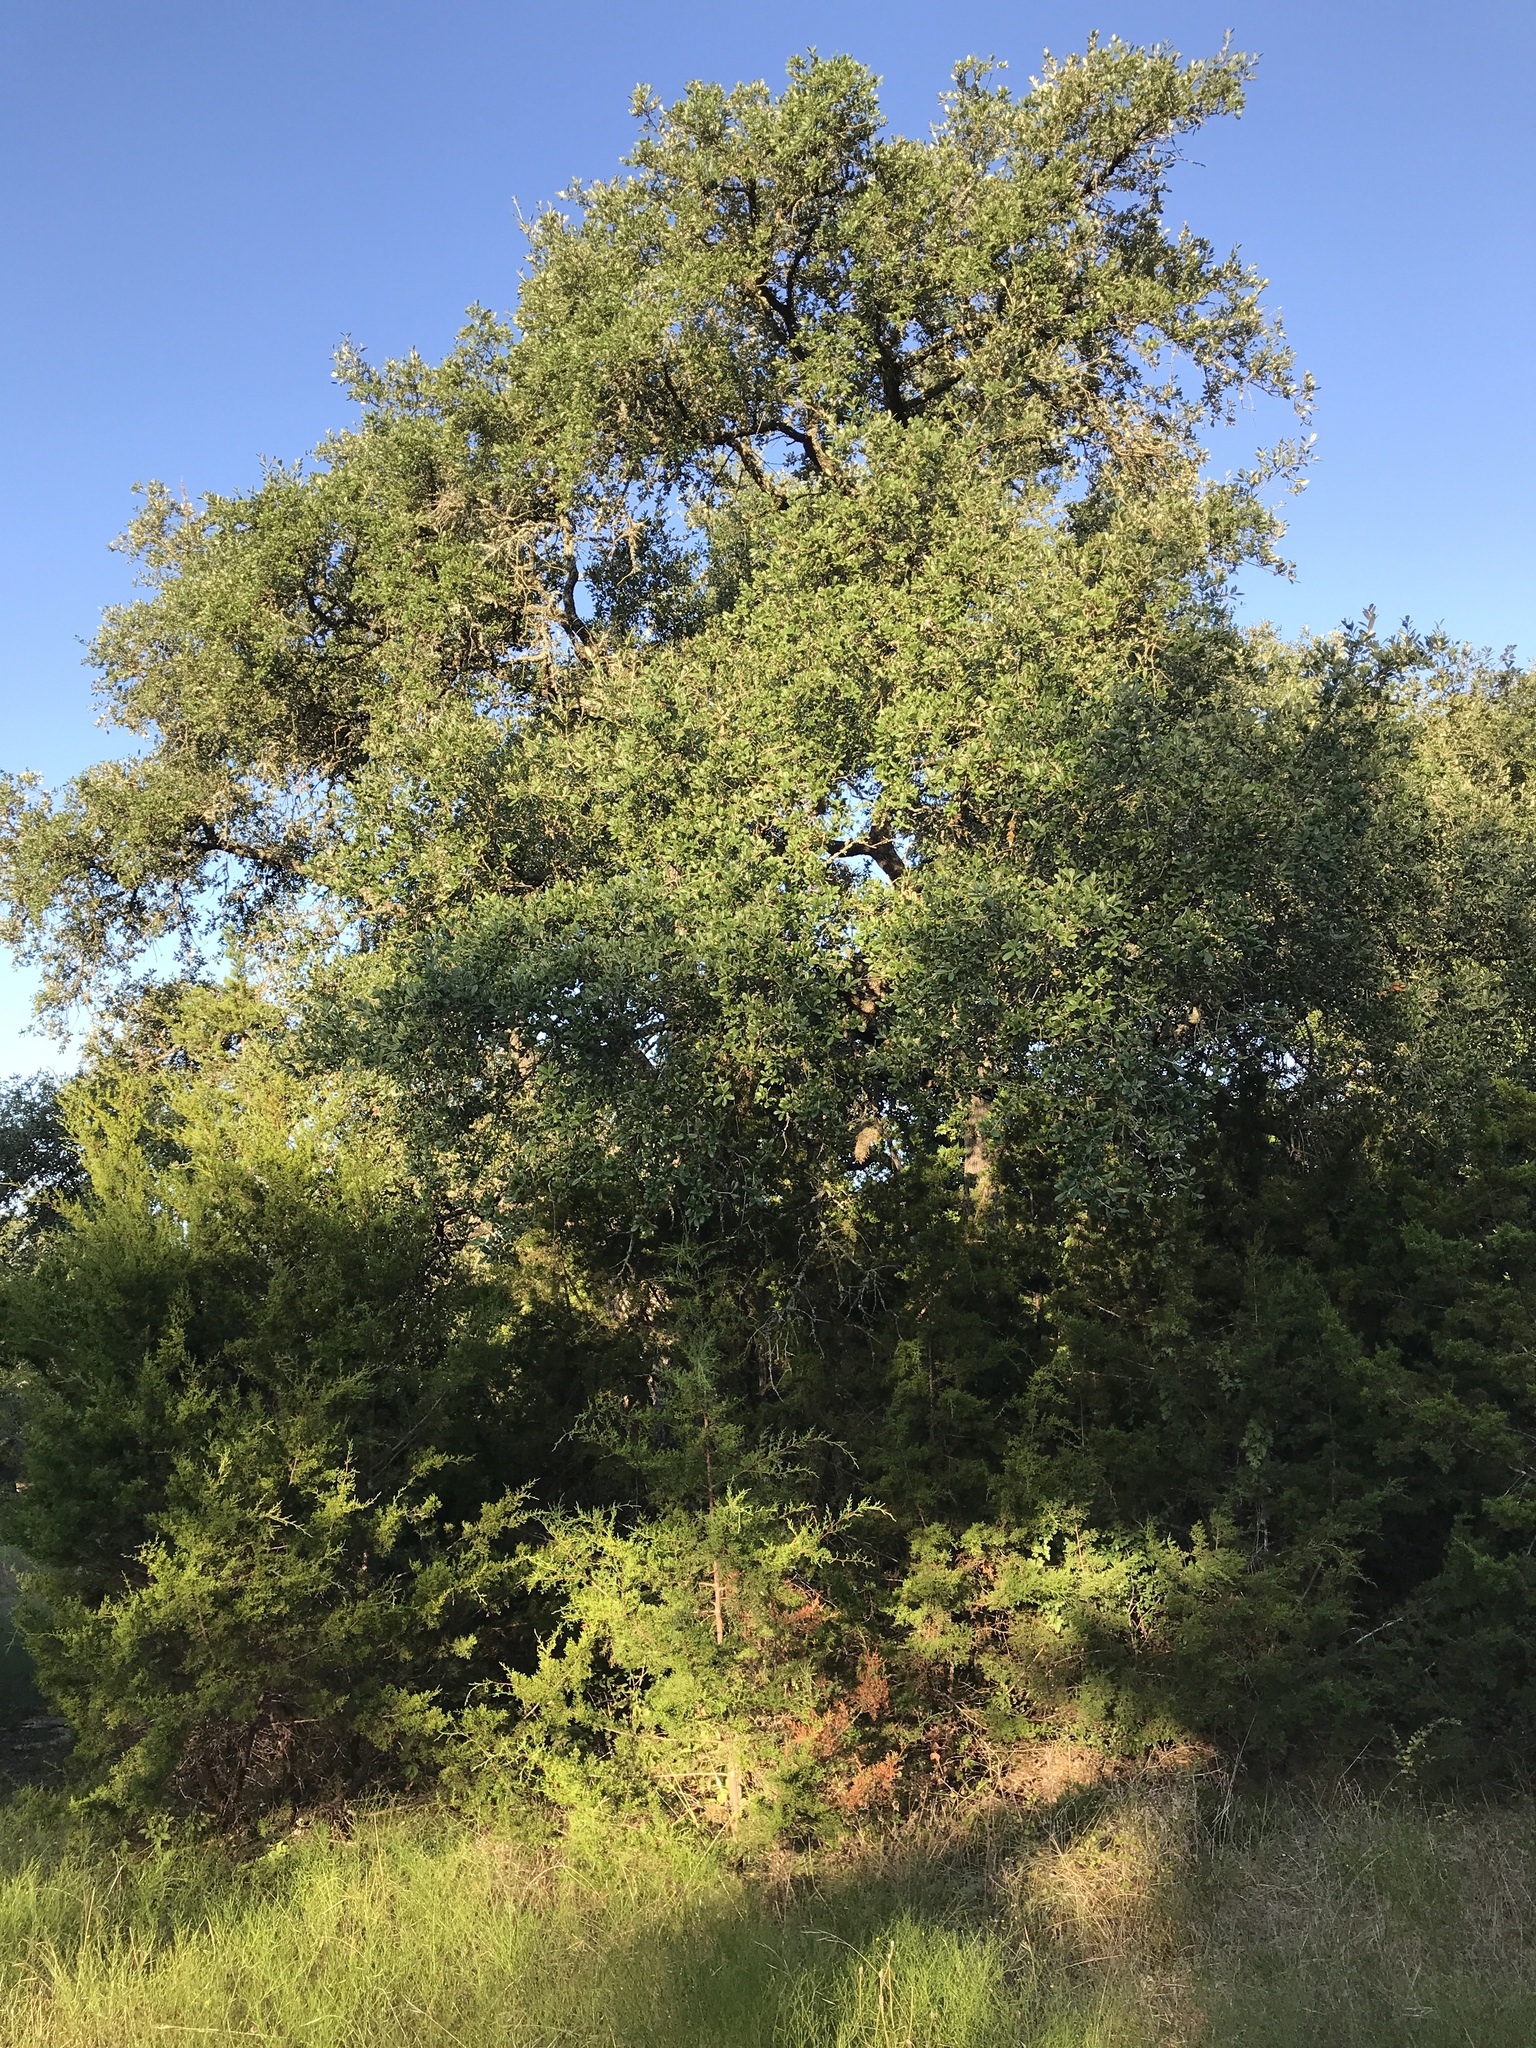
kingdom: Plantae
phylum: Tracheophyta
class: Magnoliopsida
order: Fagales
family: Fagaceae
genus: Quercus
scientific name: Quercus fusiformis
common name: Texas live oak
